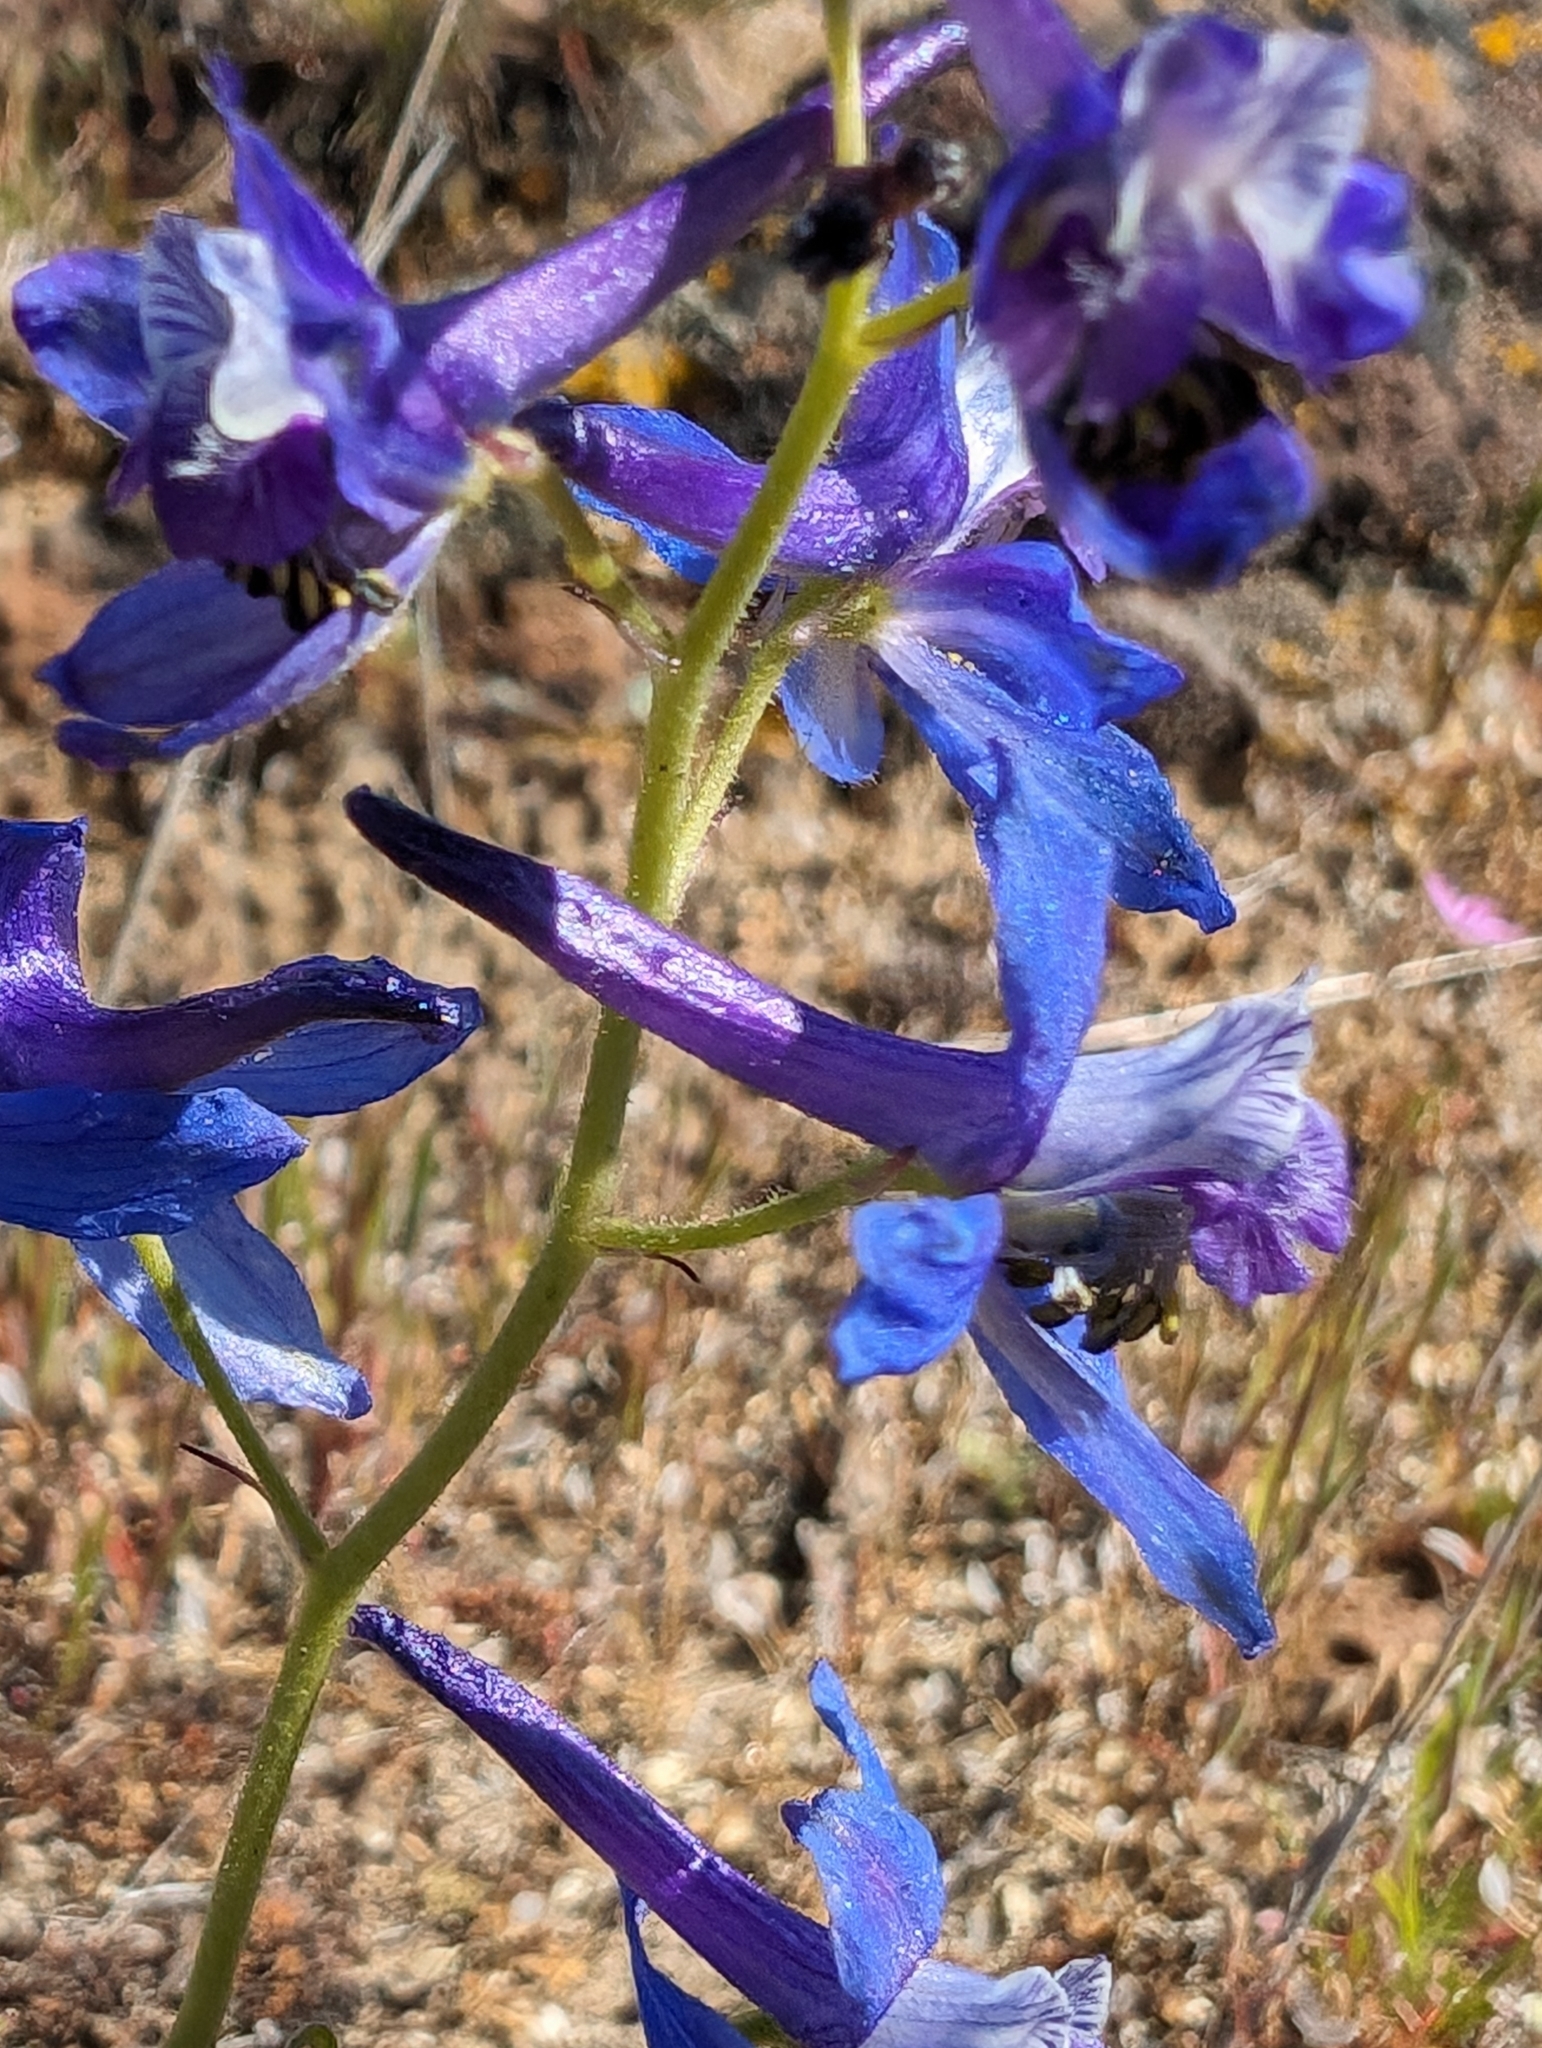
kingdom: Plantae
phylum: Tracheophyta
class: Magnoliopsida
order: Ranunculales
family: Ranunculaceae
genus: Delphinium
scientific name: Delphinium nuttallianum
